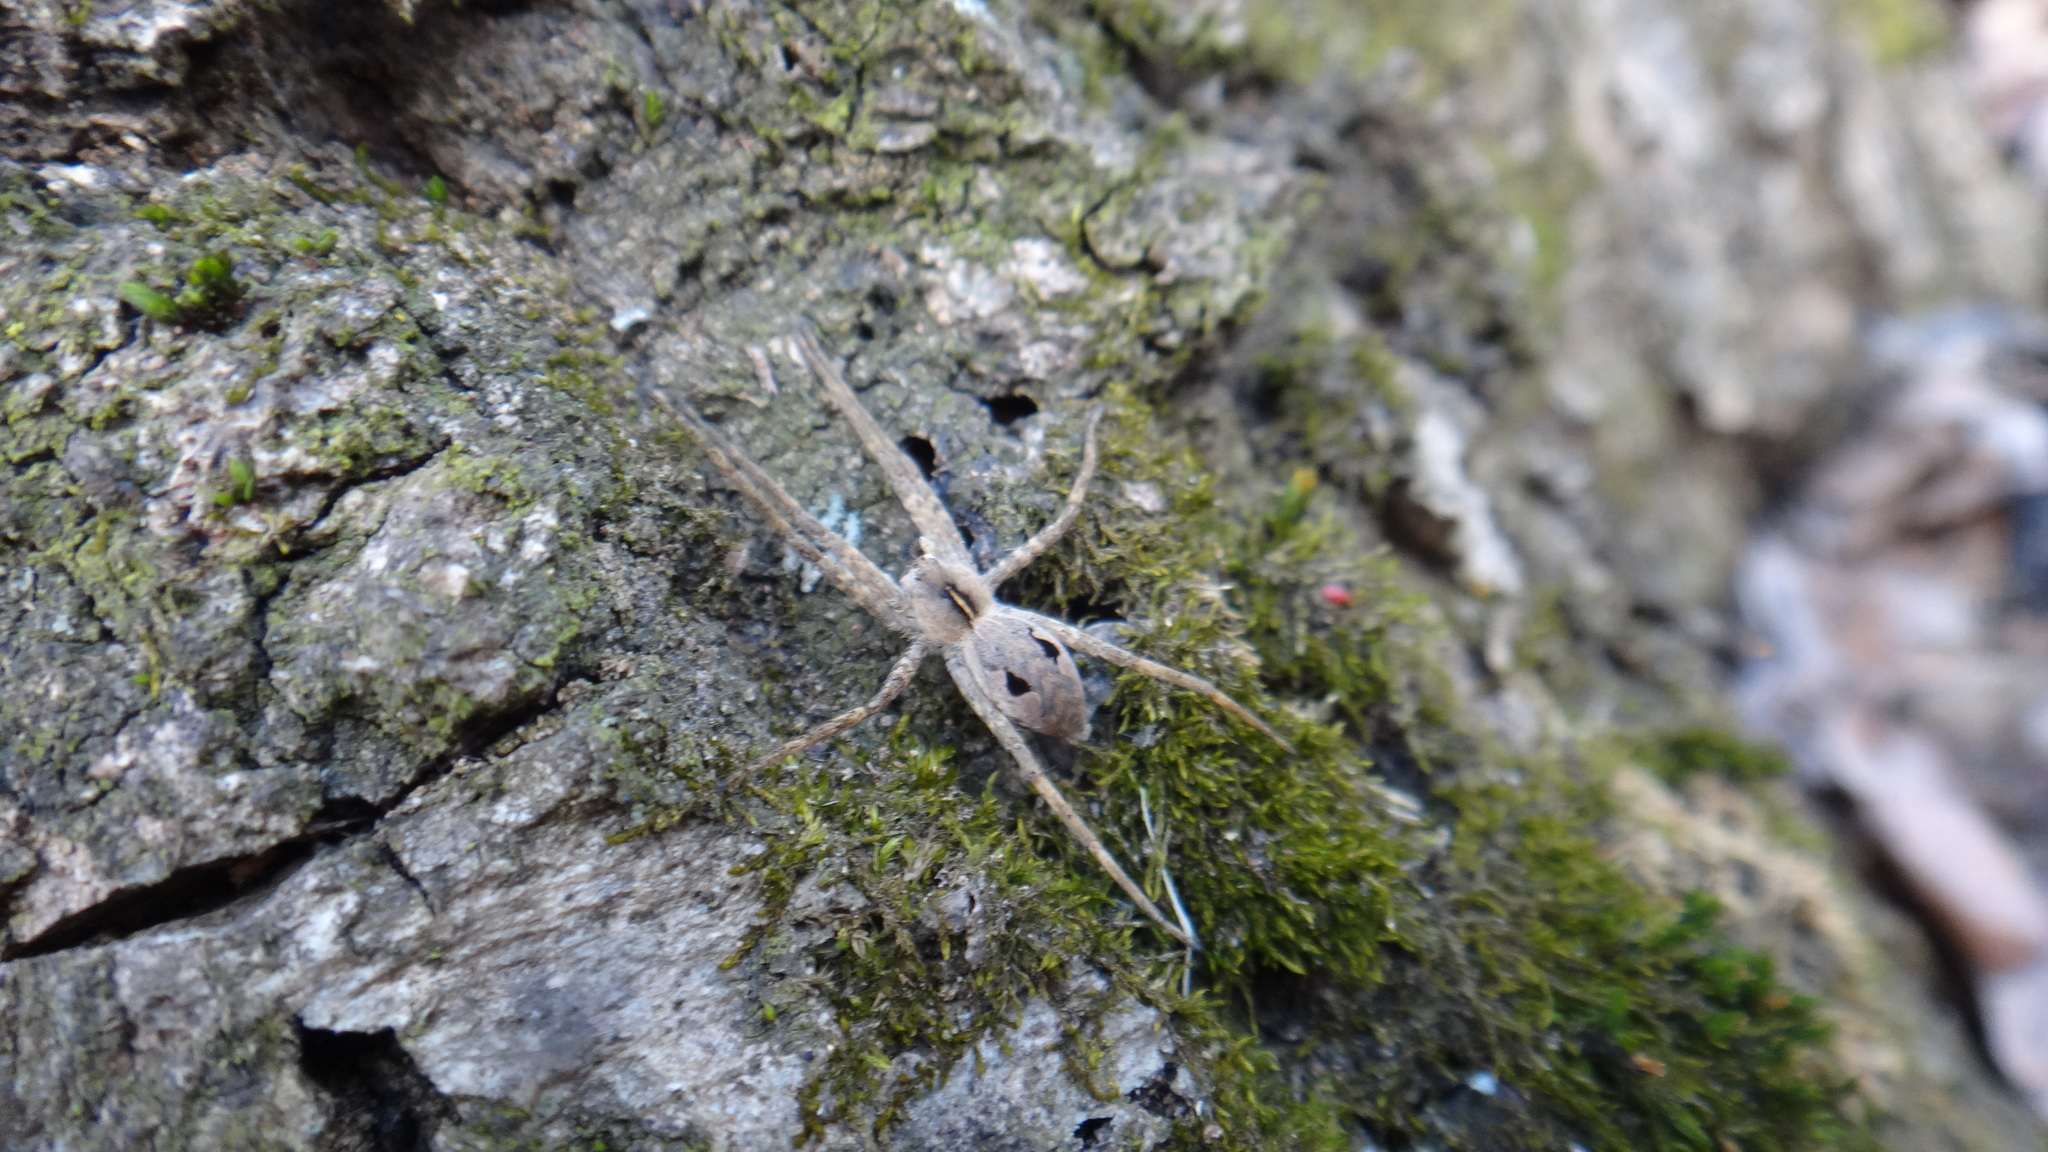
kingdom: Animalia
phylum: Arthropoda
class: Arachnida
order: Araneae
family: Pisauridae
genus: Pisaura
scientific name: Pisaura
